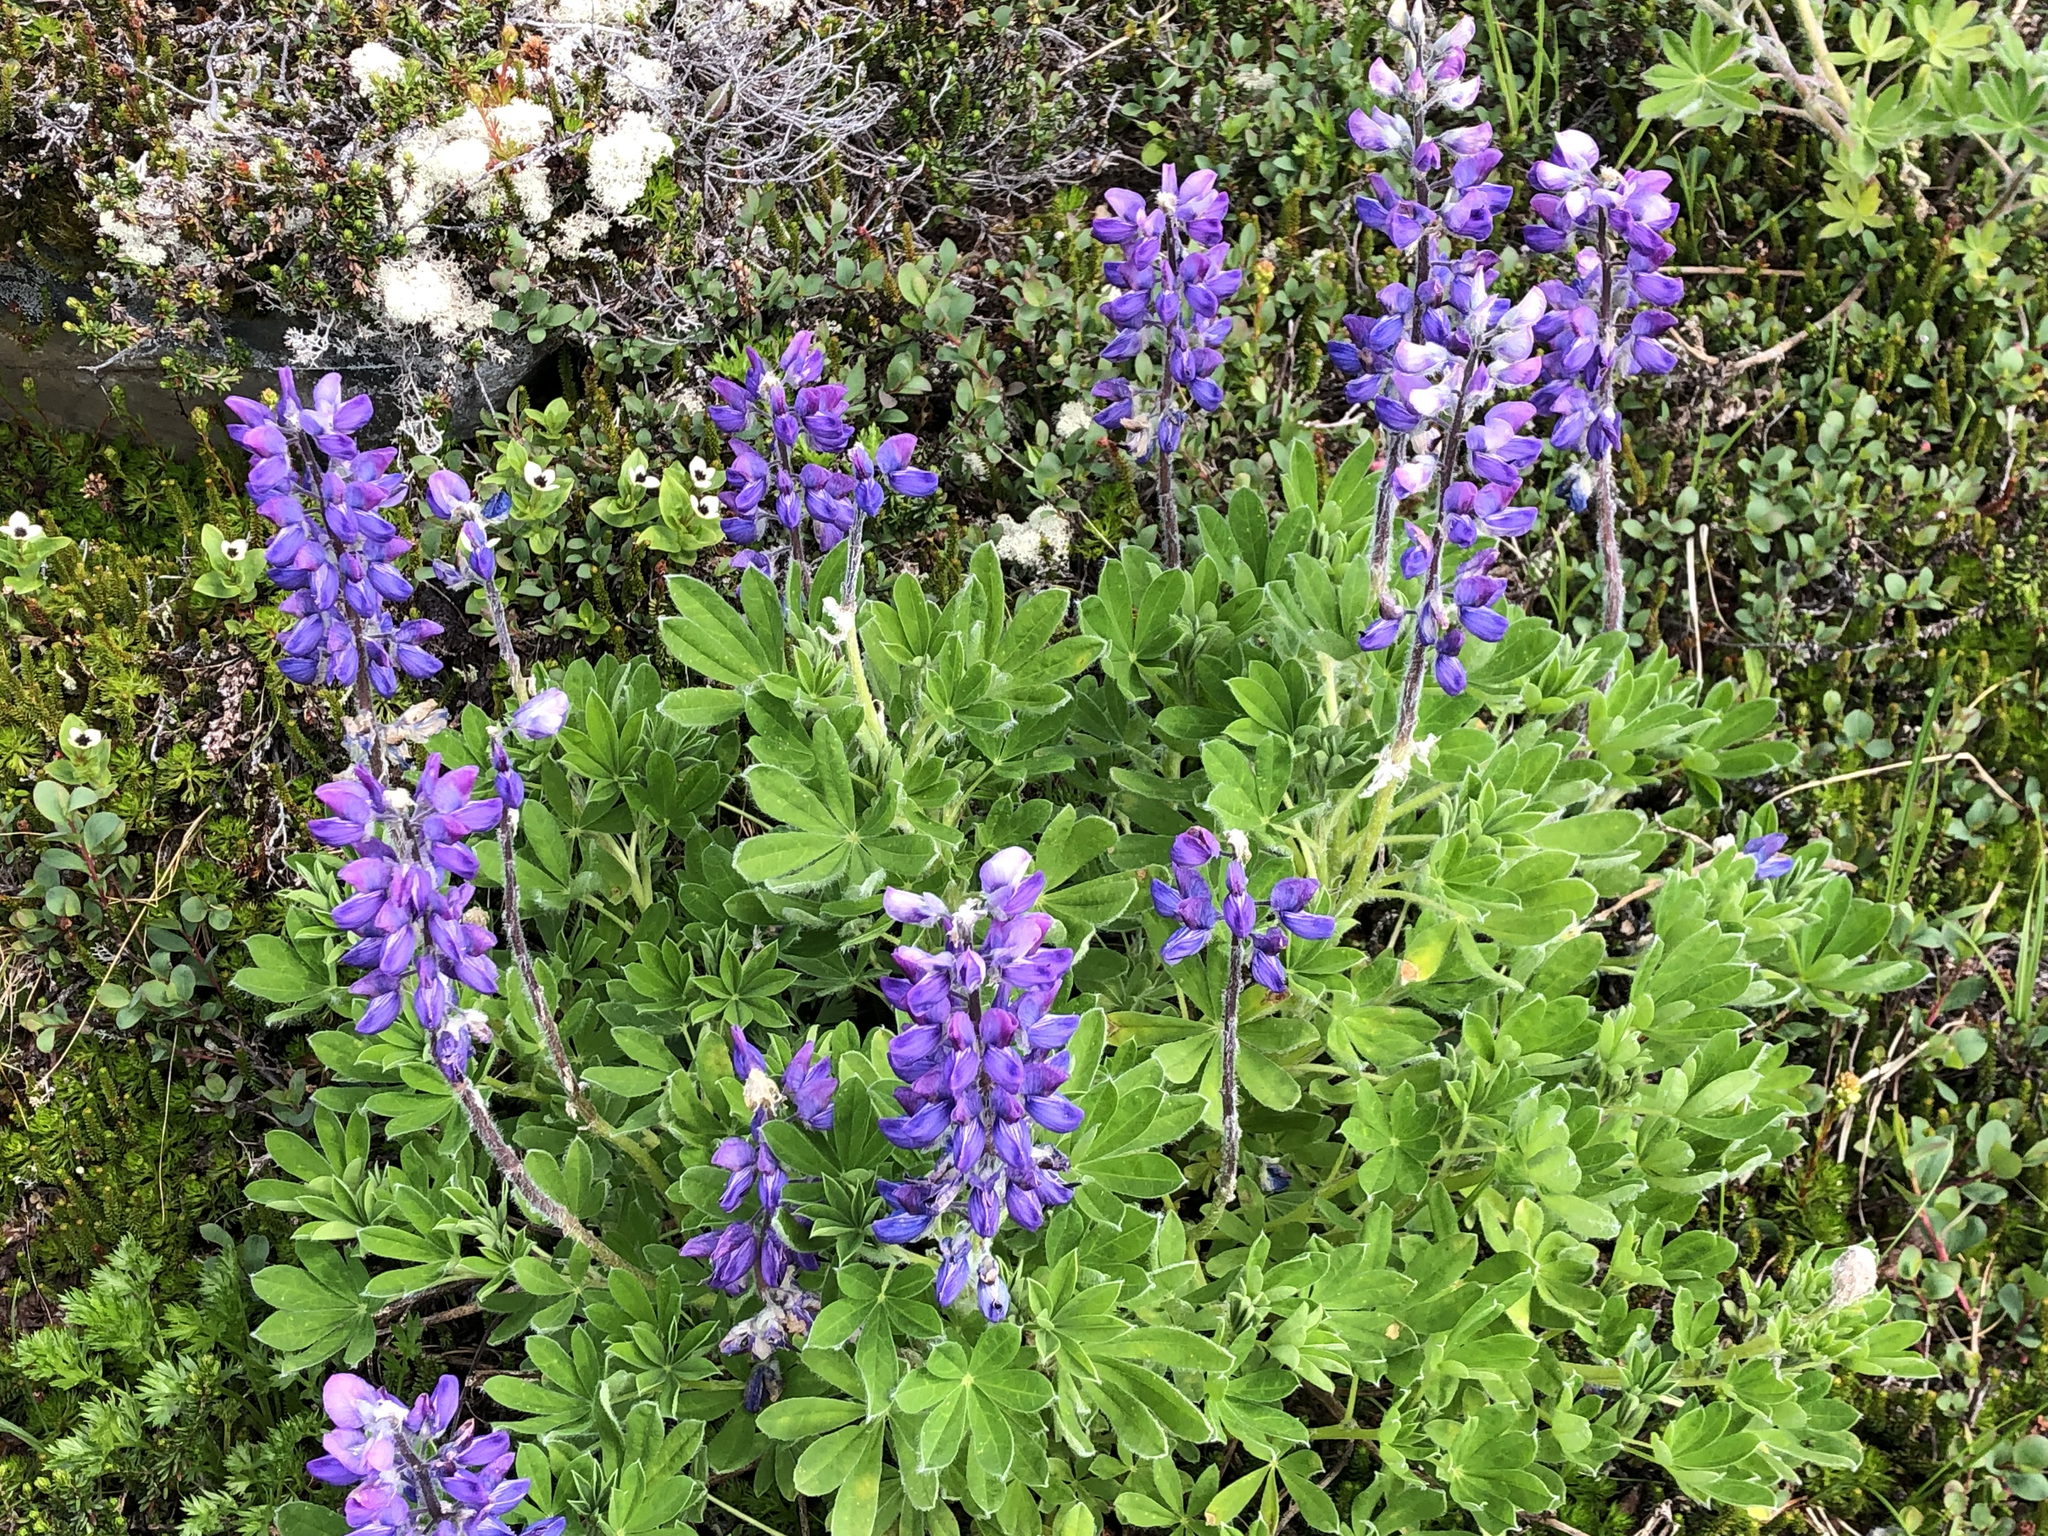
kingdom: Plantae
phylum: Tracheophyta
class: Magnoliopsida
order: Fabales
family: Fabaceae
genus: Lupinus
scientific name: Lupinus nootkatensis
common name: Nootka lupine
